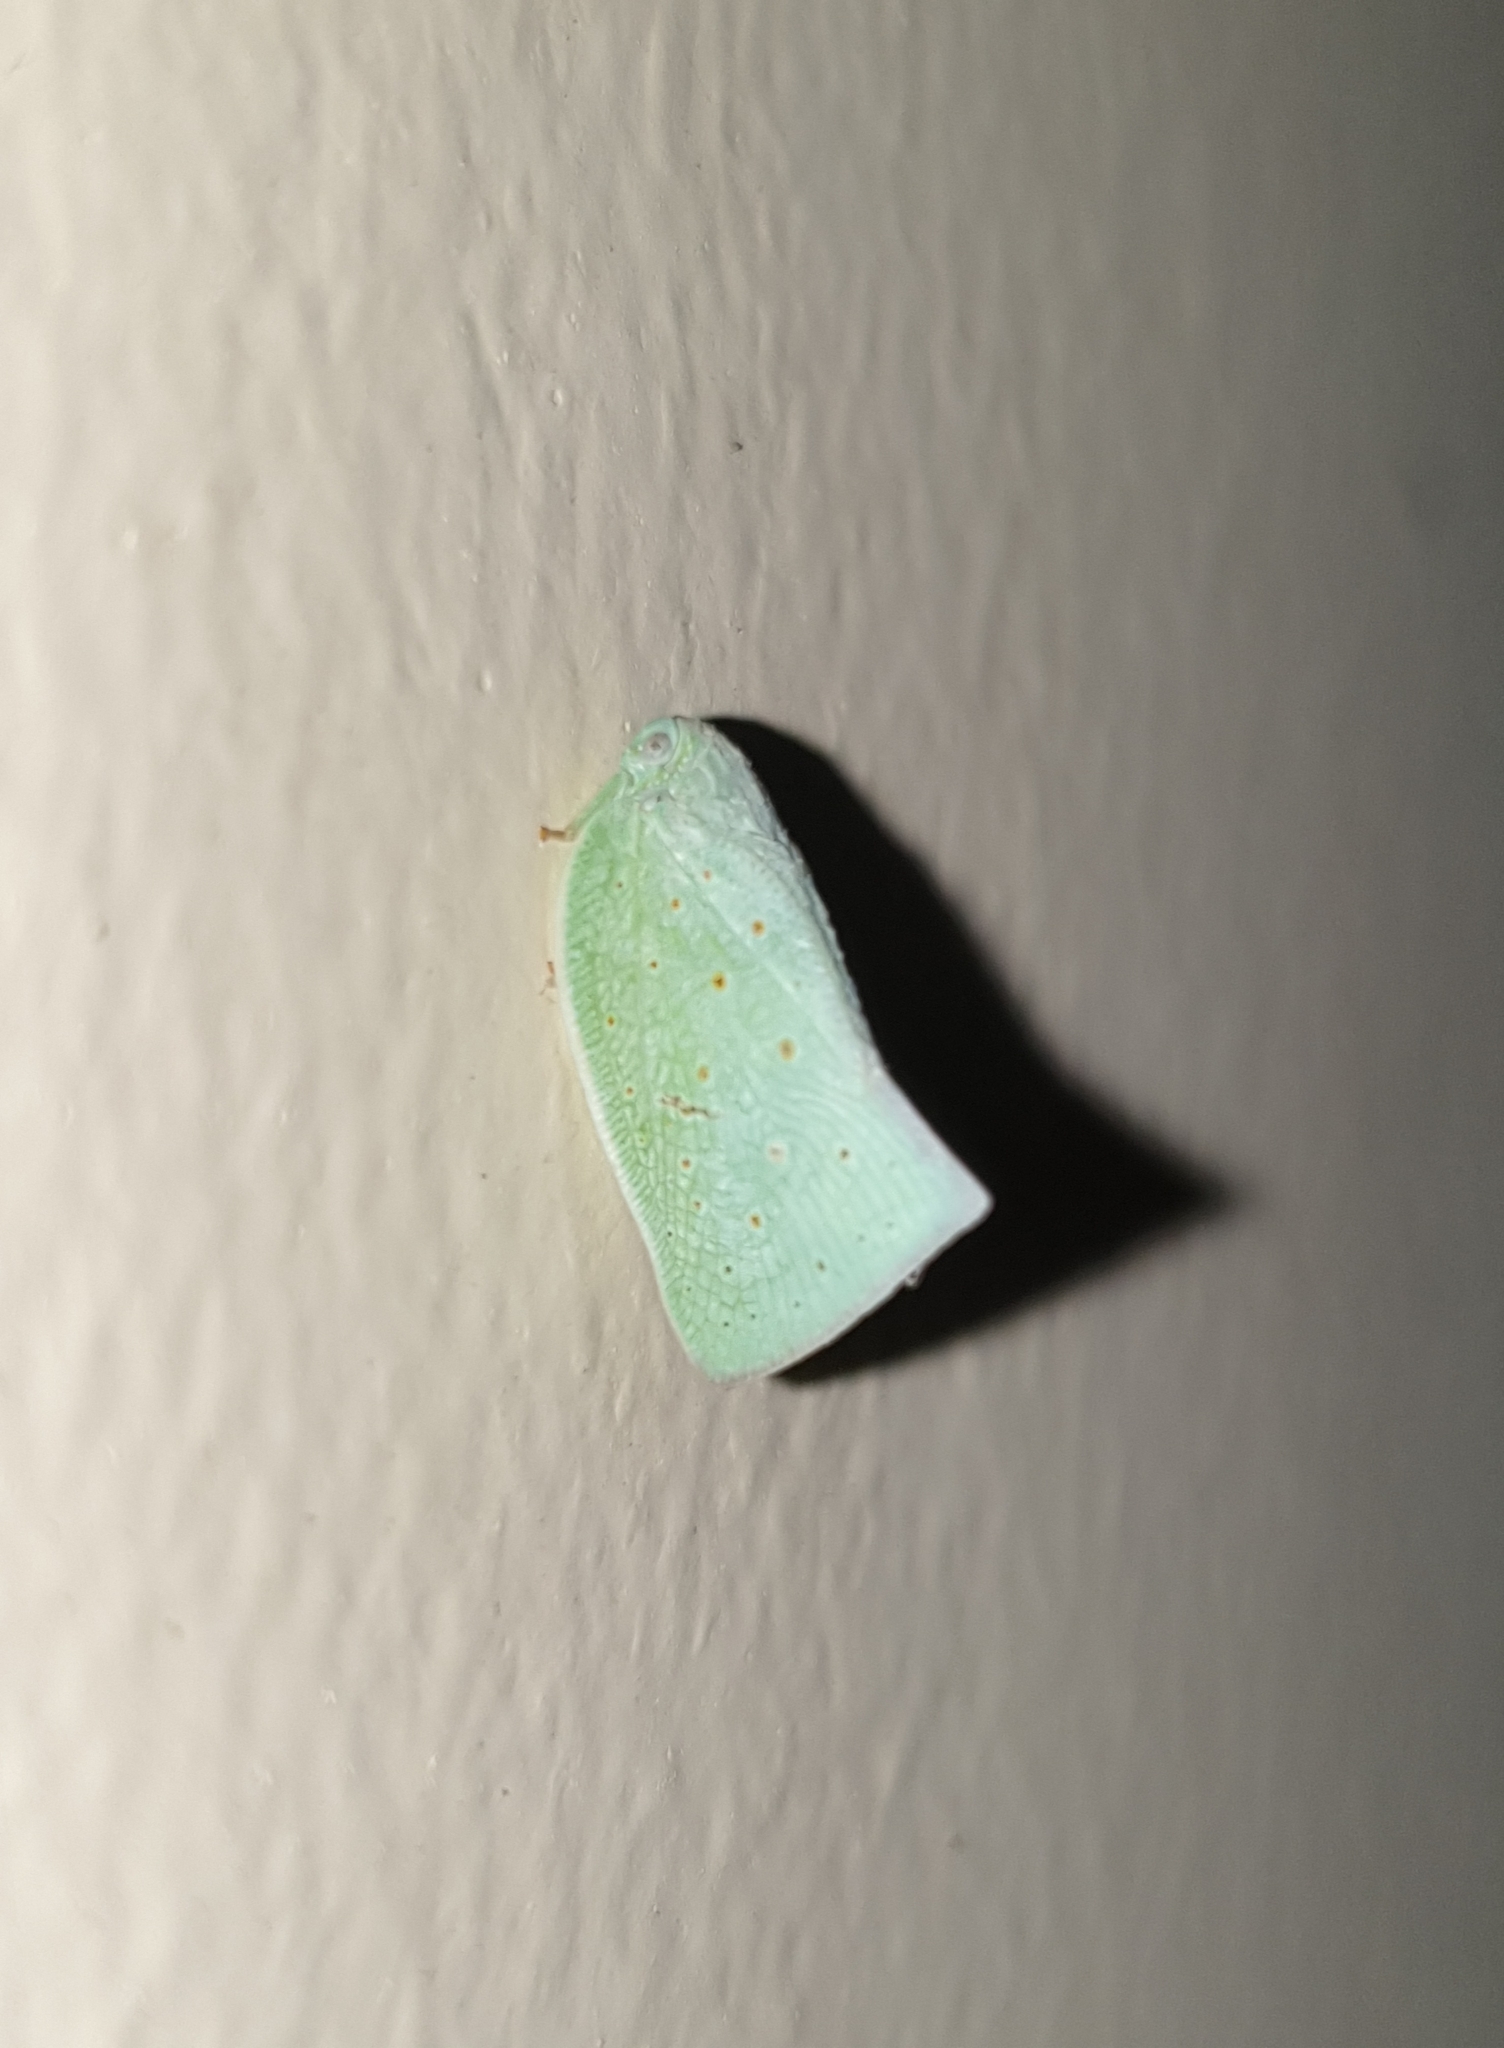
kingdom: Animalia
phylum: Arthropoda
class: Insecta
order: Hemiptera
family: Flatidae
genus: Flata
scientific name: Flata stellaris
